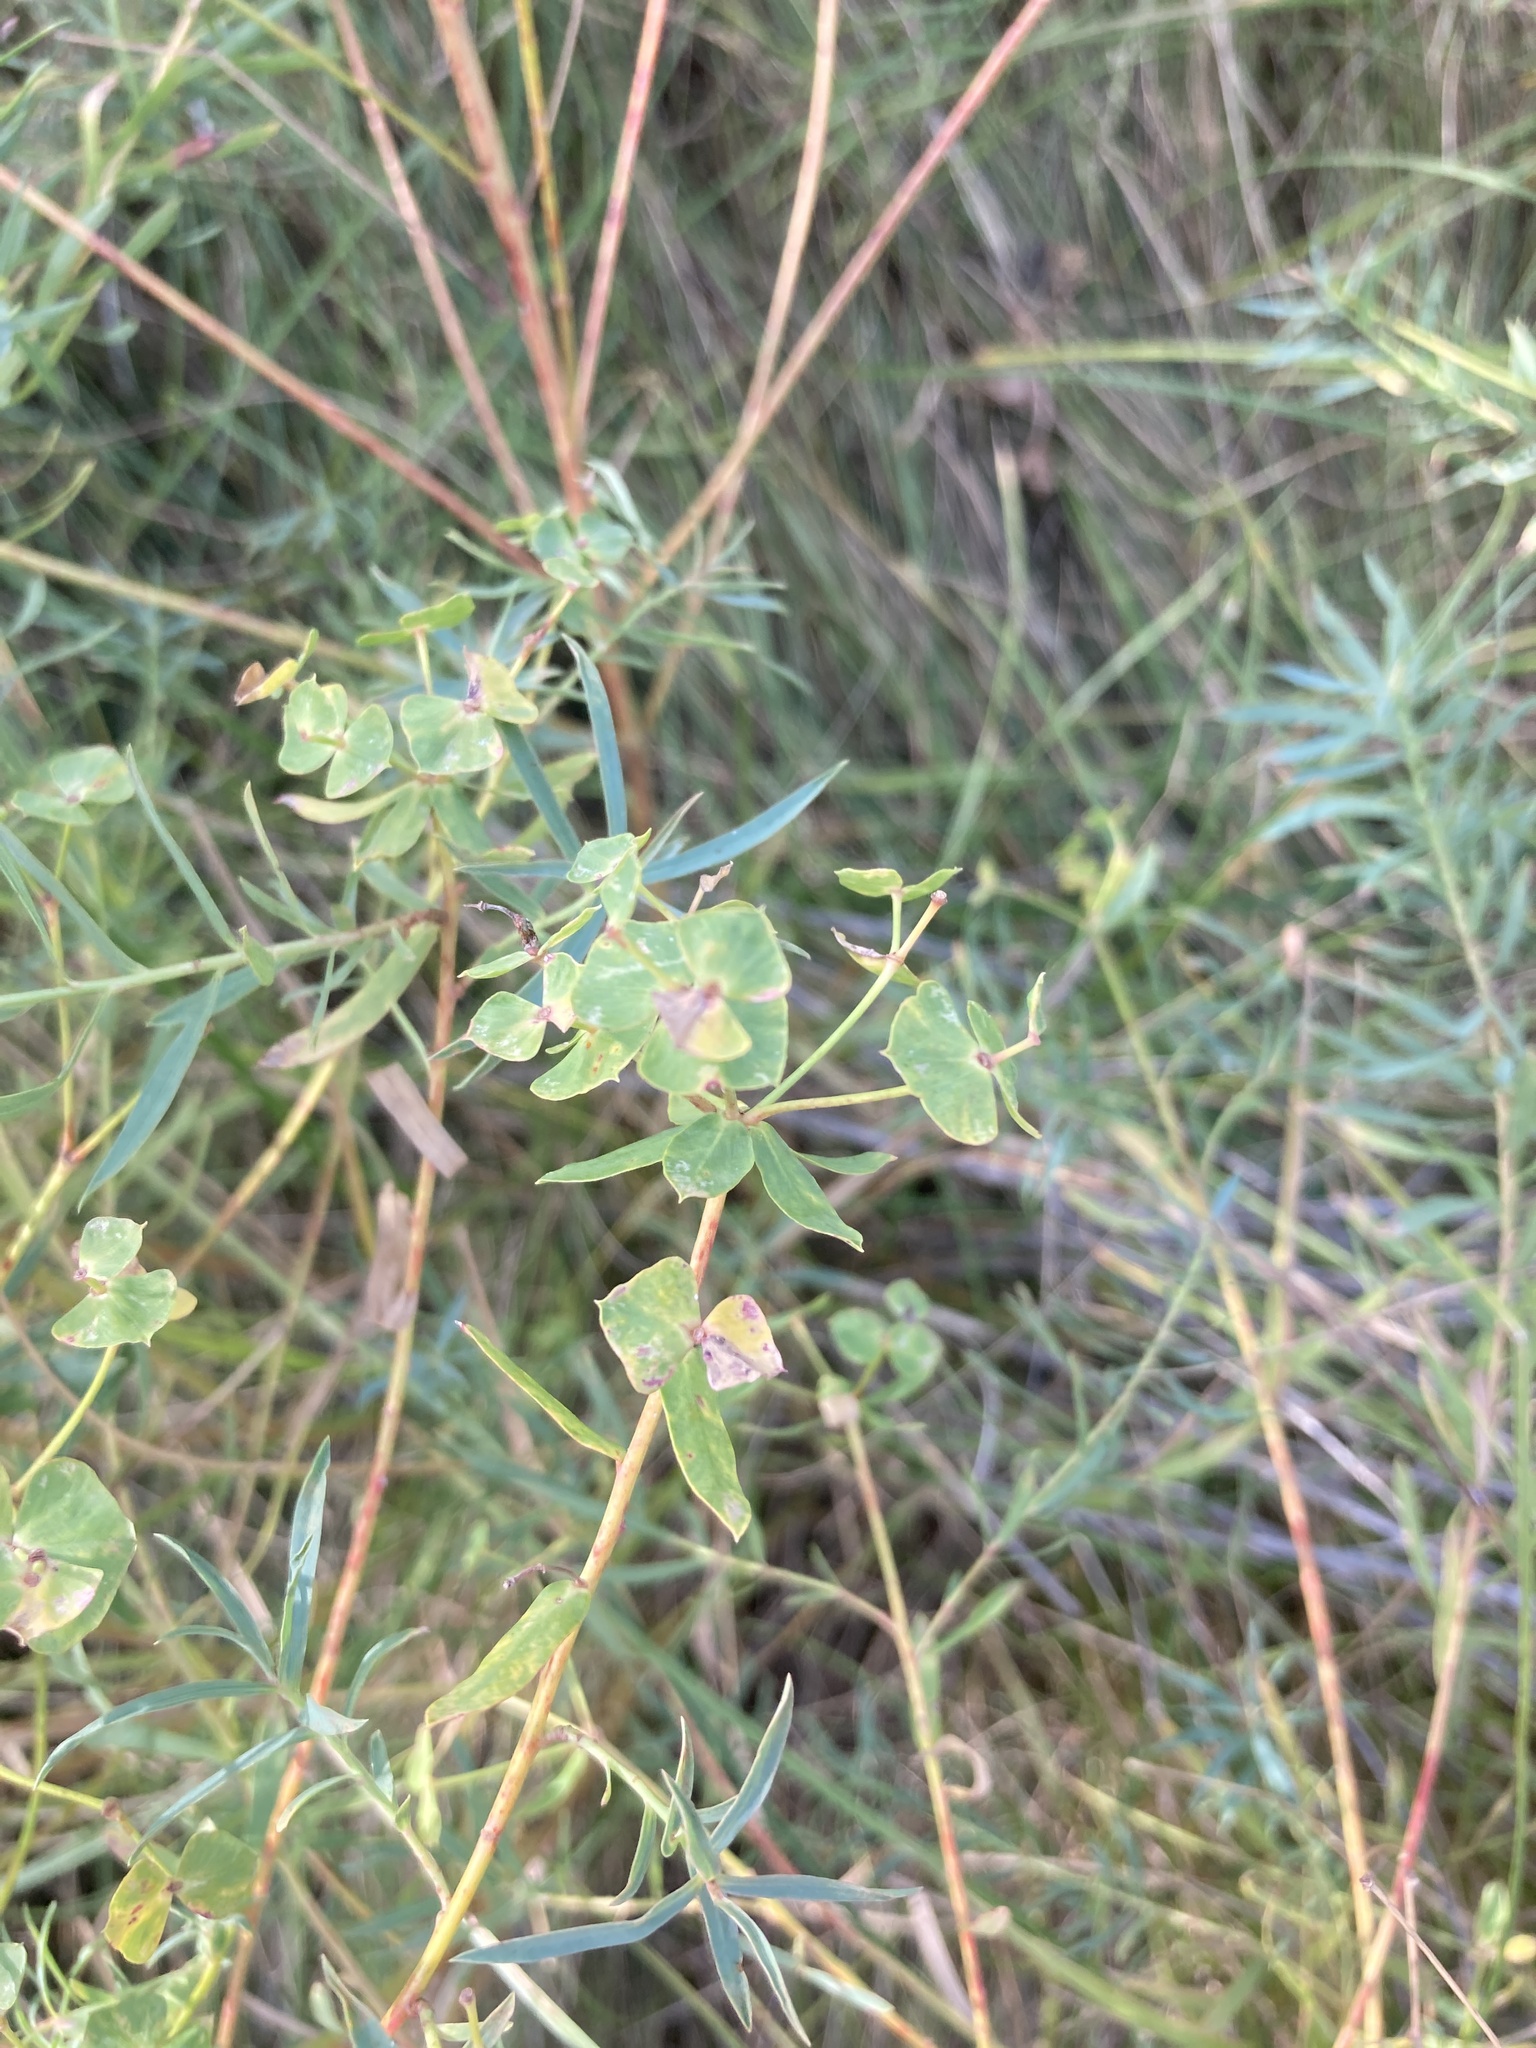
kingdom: Plantae
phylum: Tracheophyta
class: Magnoliopsida
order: Malpighiales
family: Euphorbiaceae
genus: Euphorbia
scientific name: Euphorbia virgata
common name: Leafy spurge
